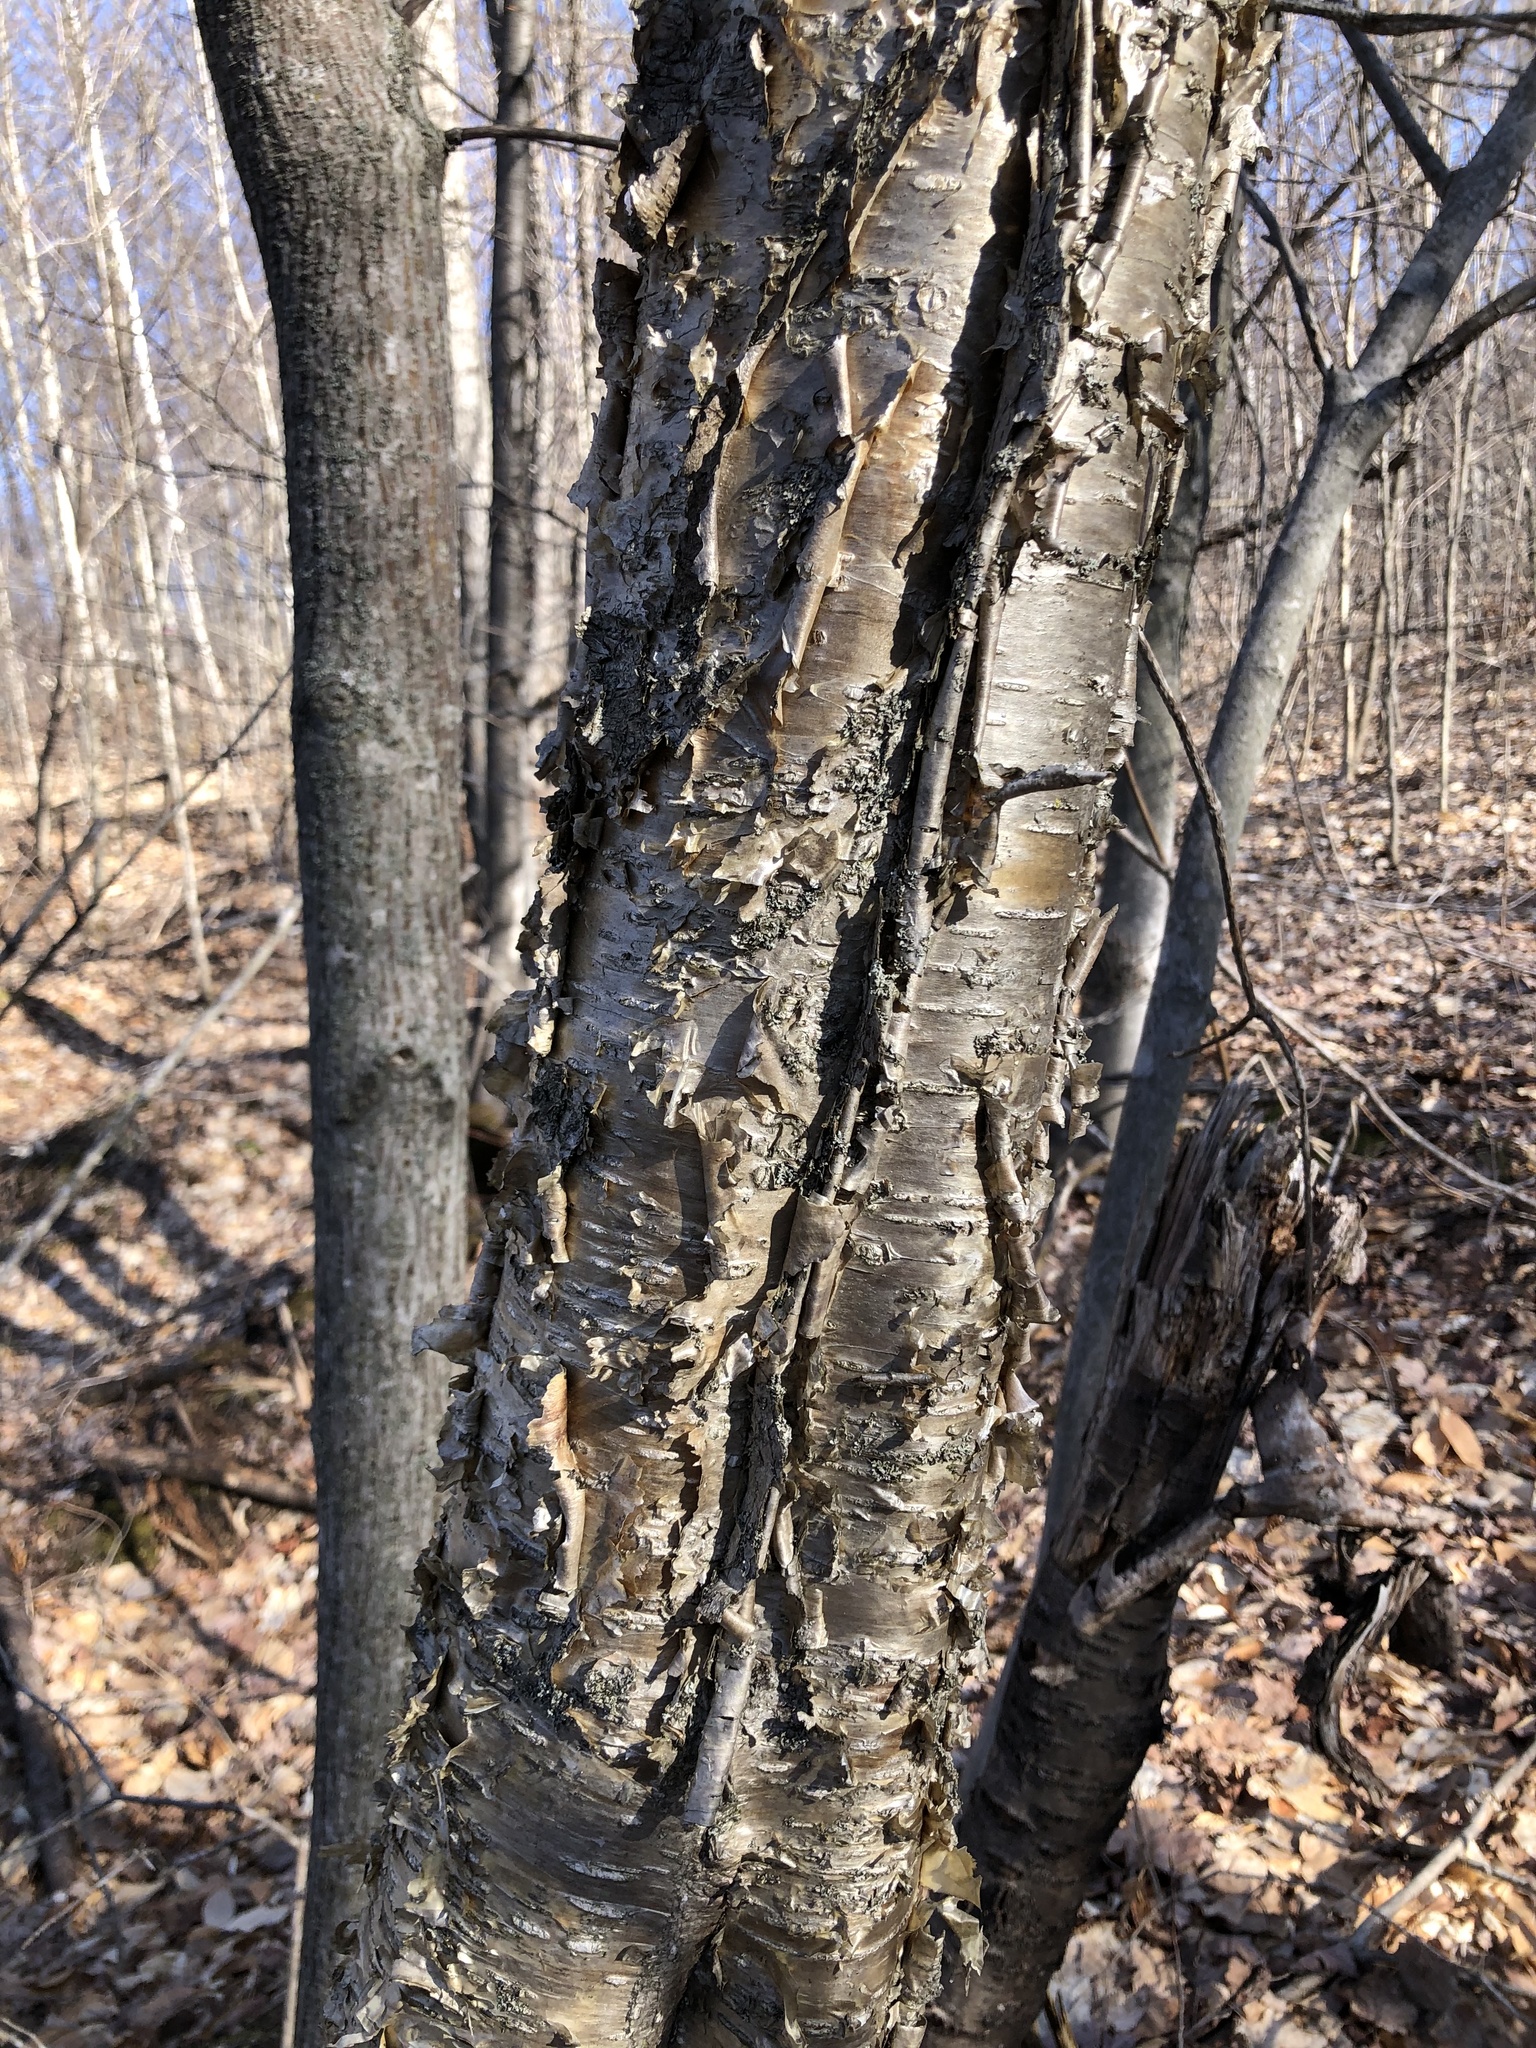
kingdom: Plantae
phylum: Tracheophyta
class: Magnoliopsida
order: Fagales
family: Betulaceae
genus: Betula
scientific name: Betula alleghaniensis
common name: Yellow birch
